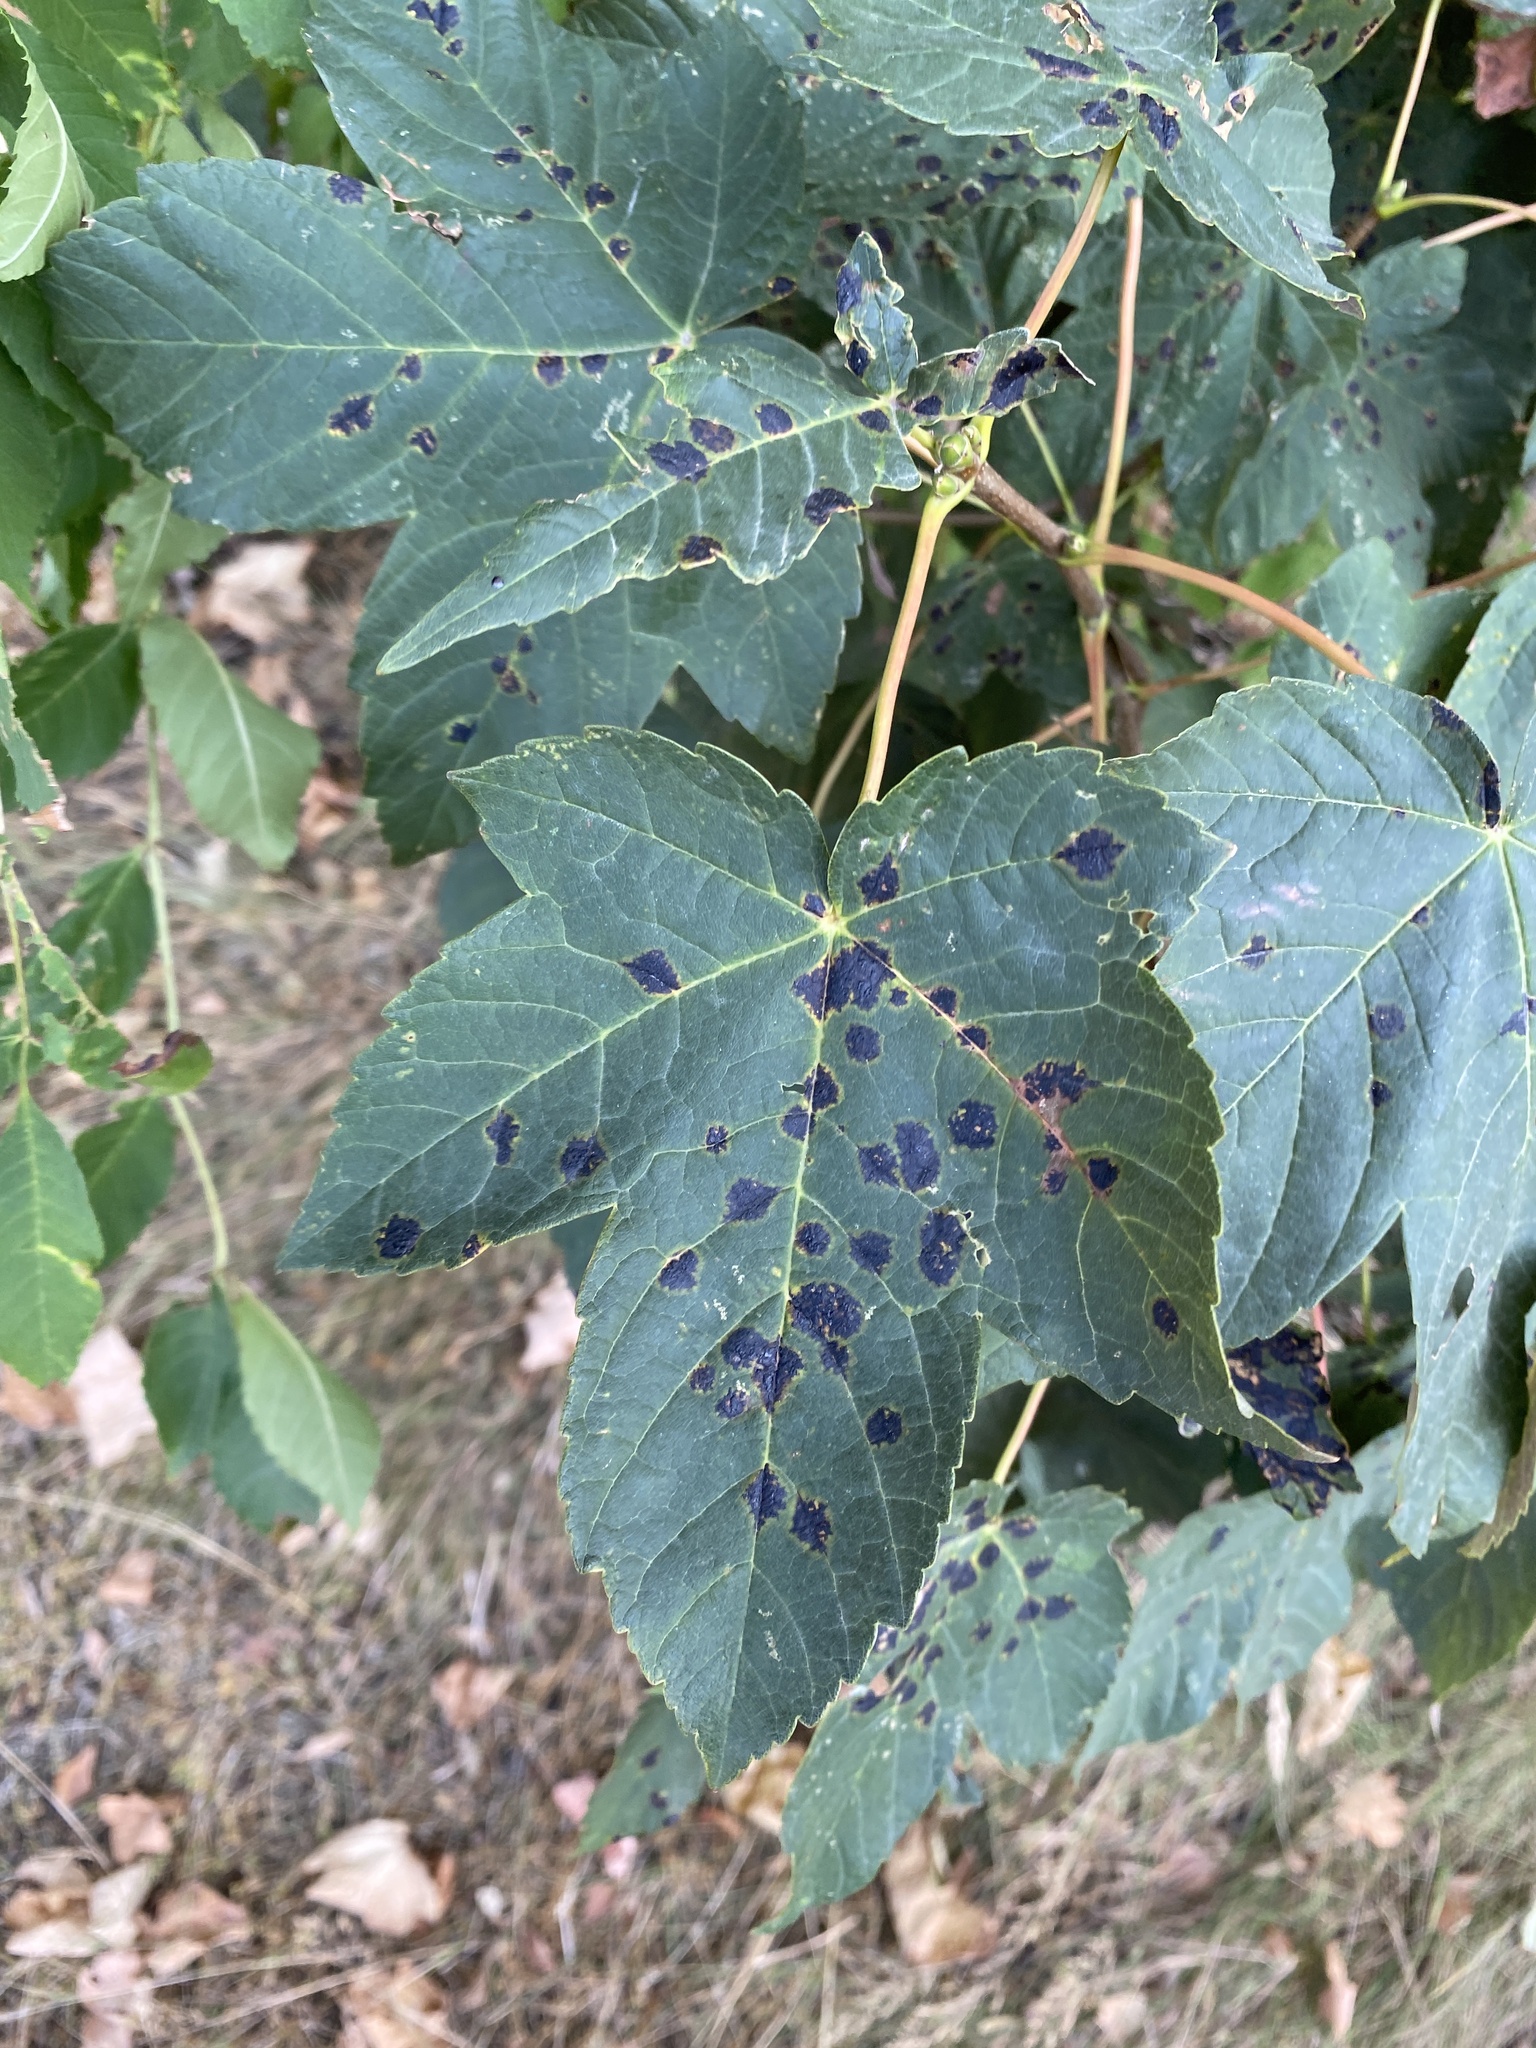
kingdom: Plantae
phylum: Tracheophyta
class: Magnoliopsida
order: Sapindales
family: Sapindaceae
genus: Acer
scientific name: Acer pseudoplatanus
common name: Sycamore
